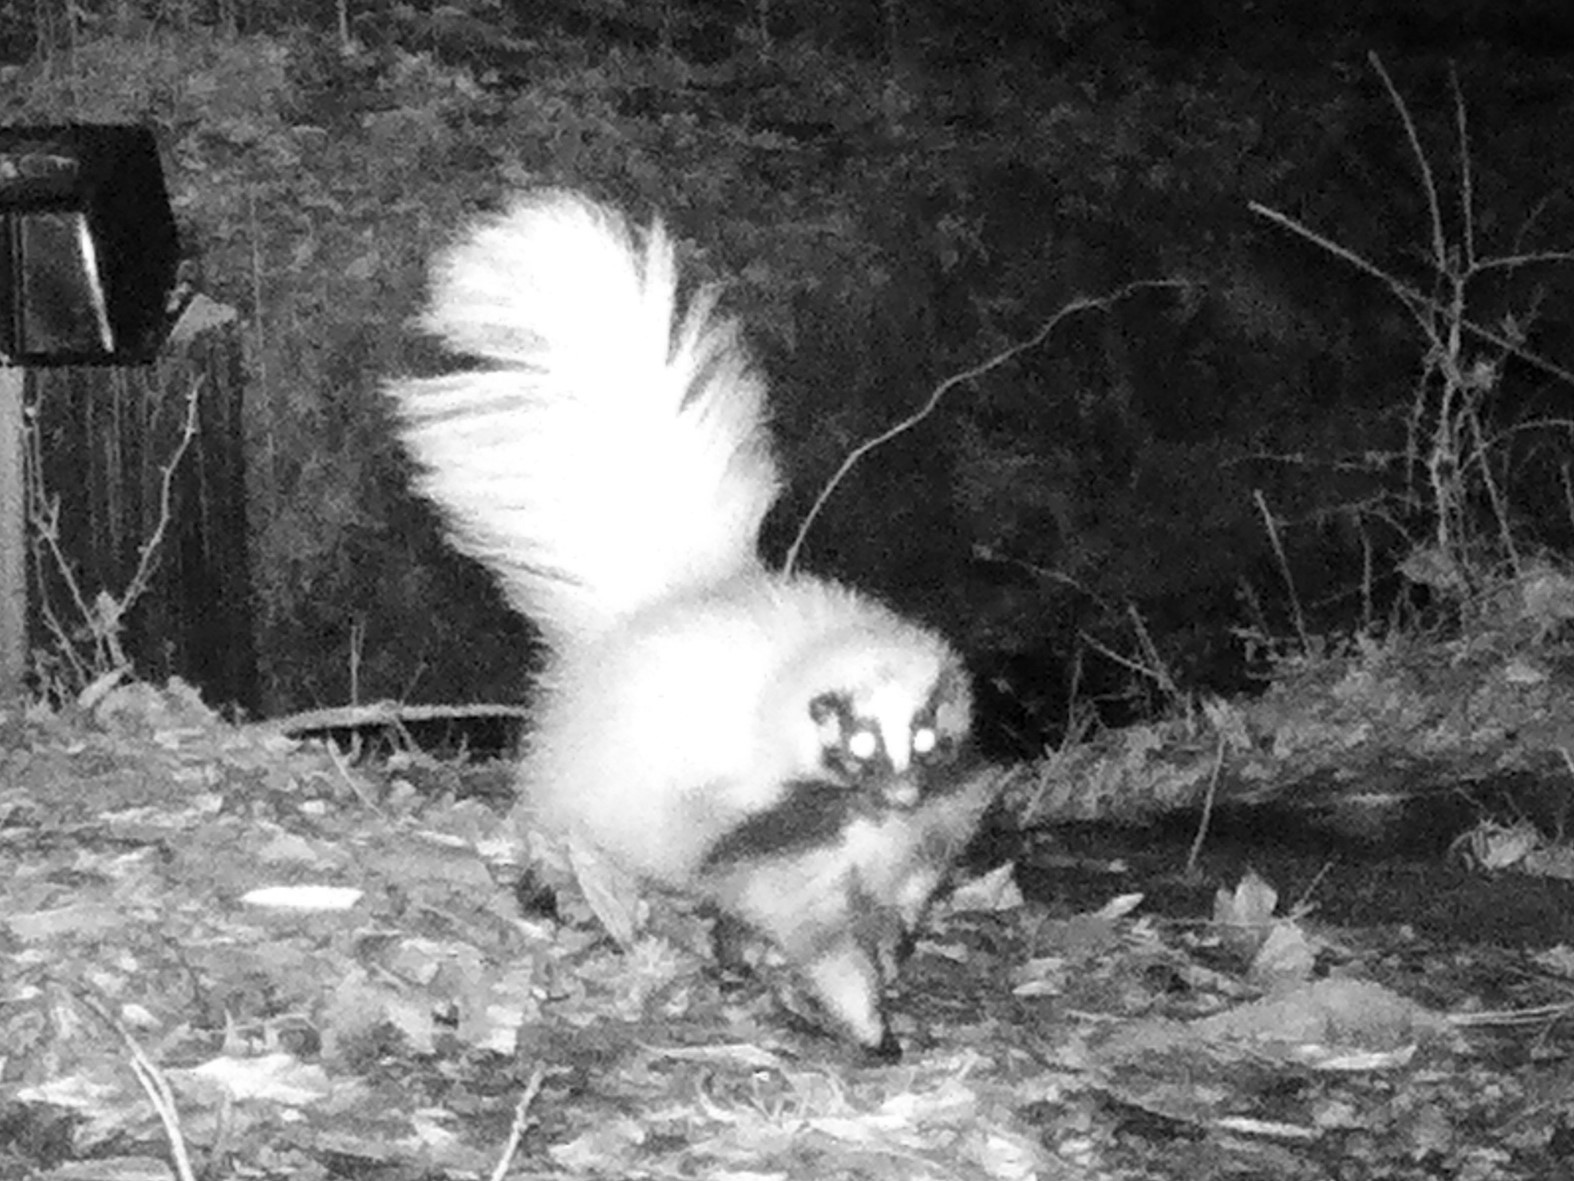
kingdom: Animalia
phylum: Chordata
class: Mammalia
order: Carnivora
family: Mephitidae
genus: Mephitis
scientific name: Mephitis mephitis
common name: Striped skunk
